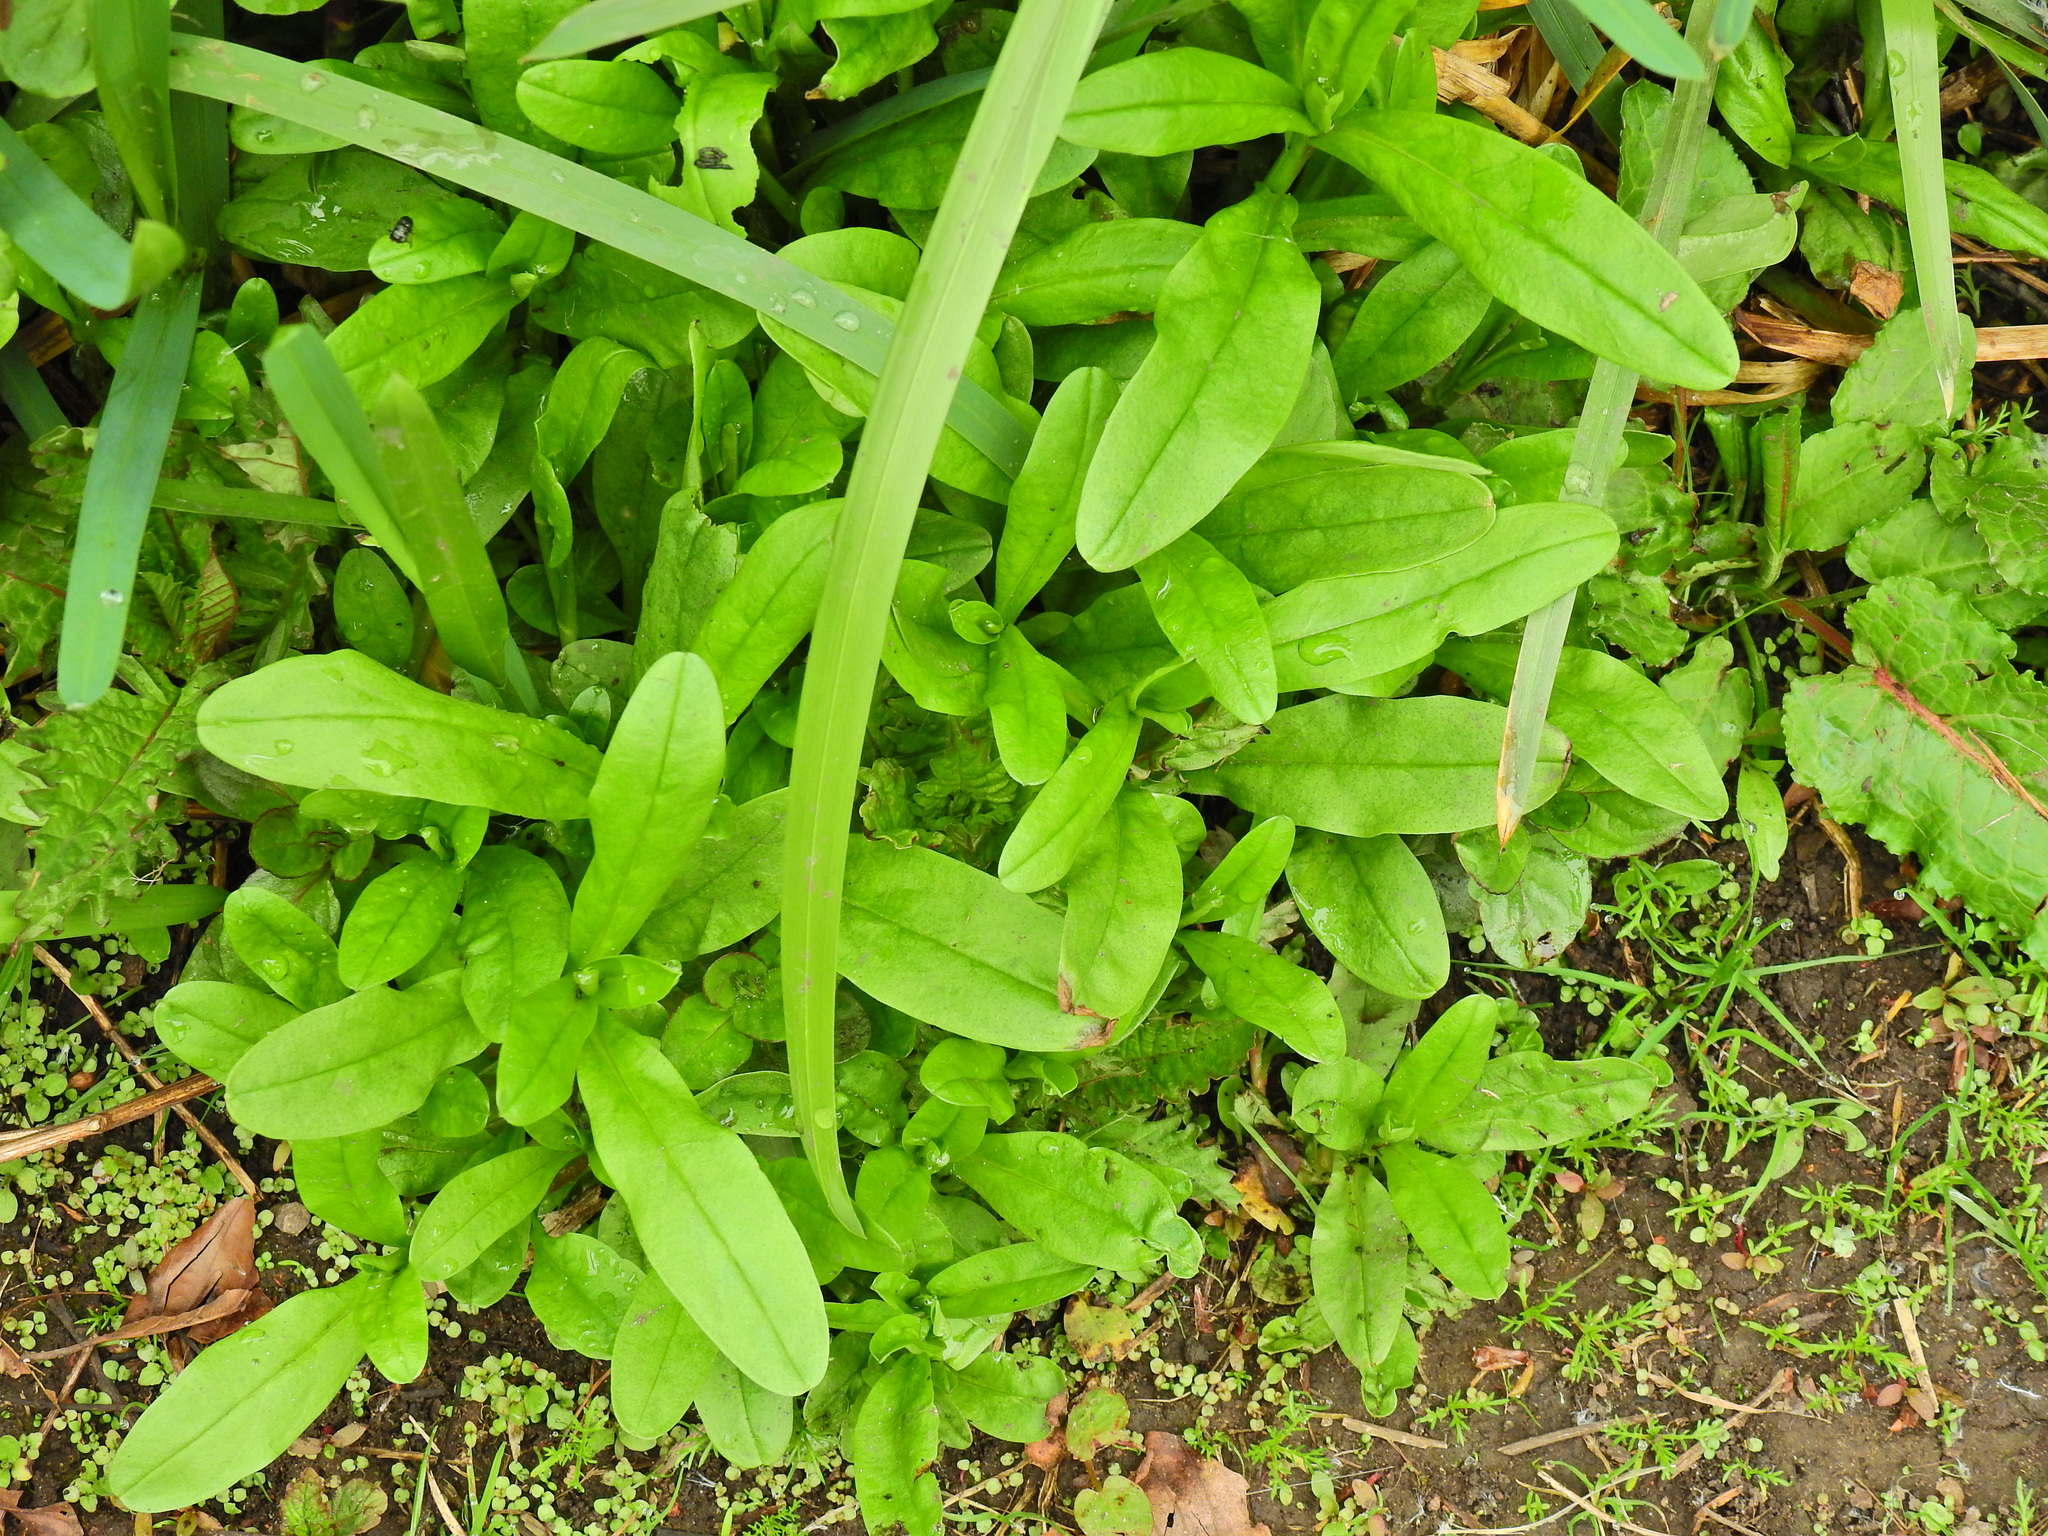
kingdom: Plantae
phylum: Tracheophyta
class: Magnoliopsida
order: Boraginales
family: Boraginaceae
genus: Myosotis
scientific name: Myosotis scorpioides
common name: Water forget-me-not
